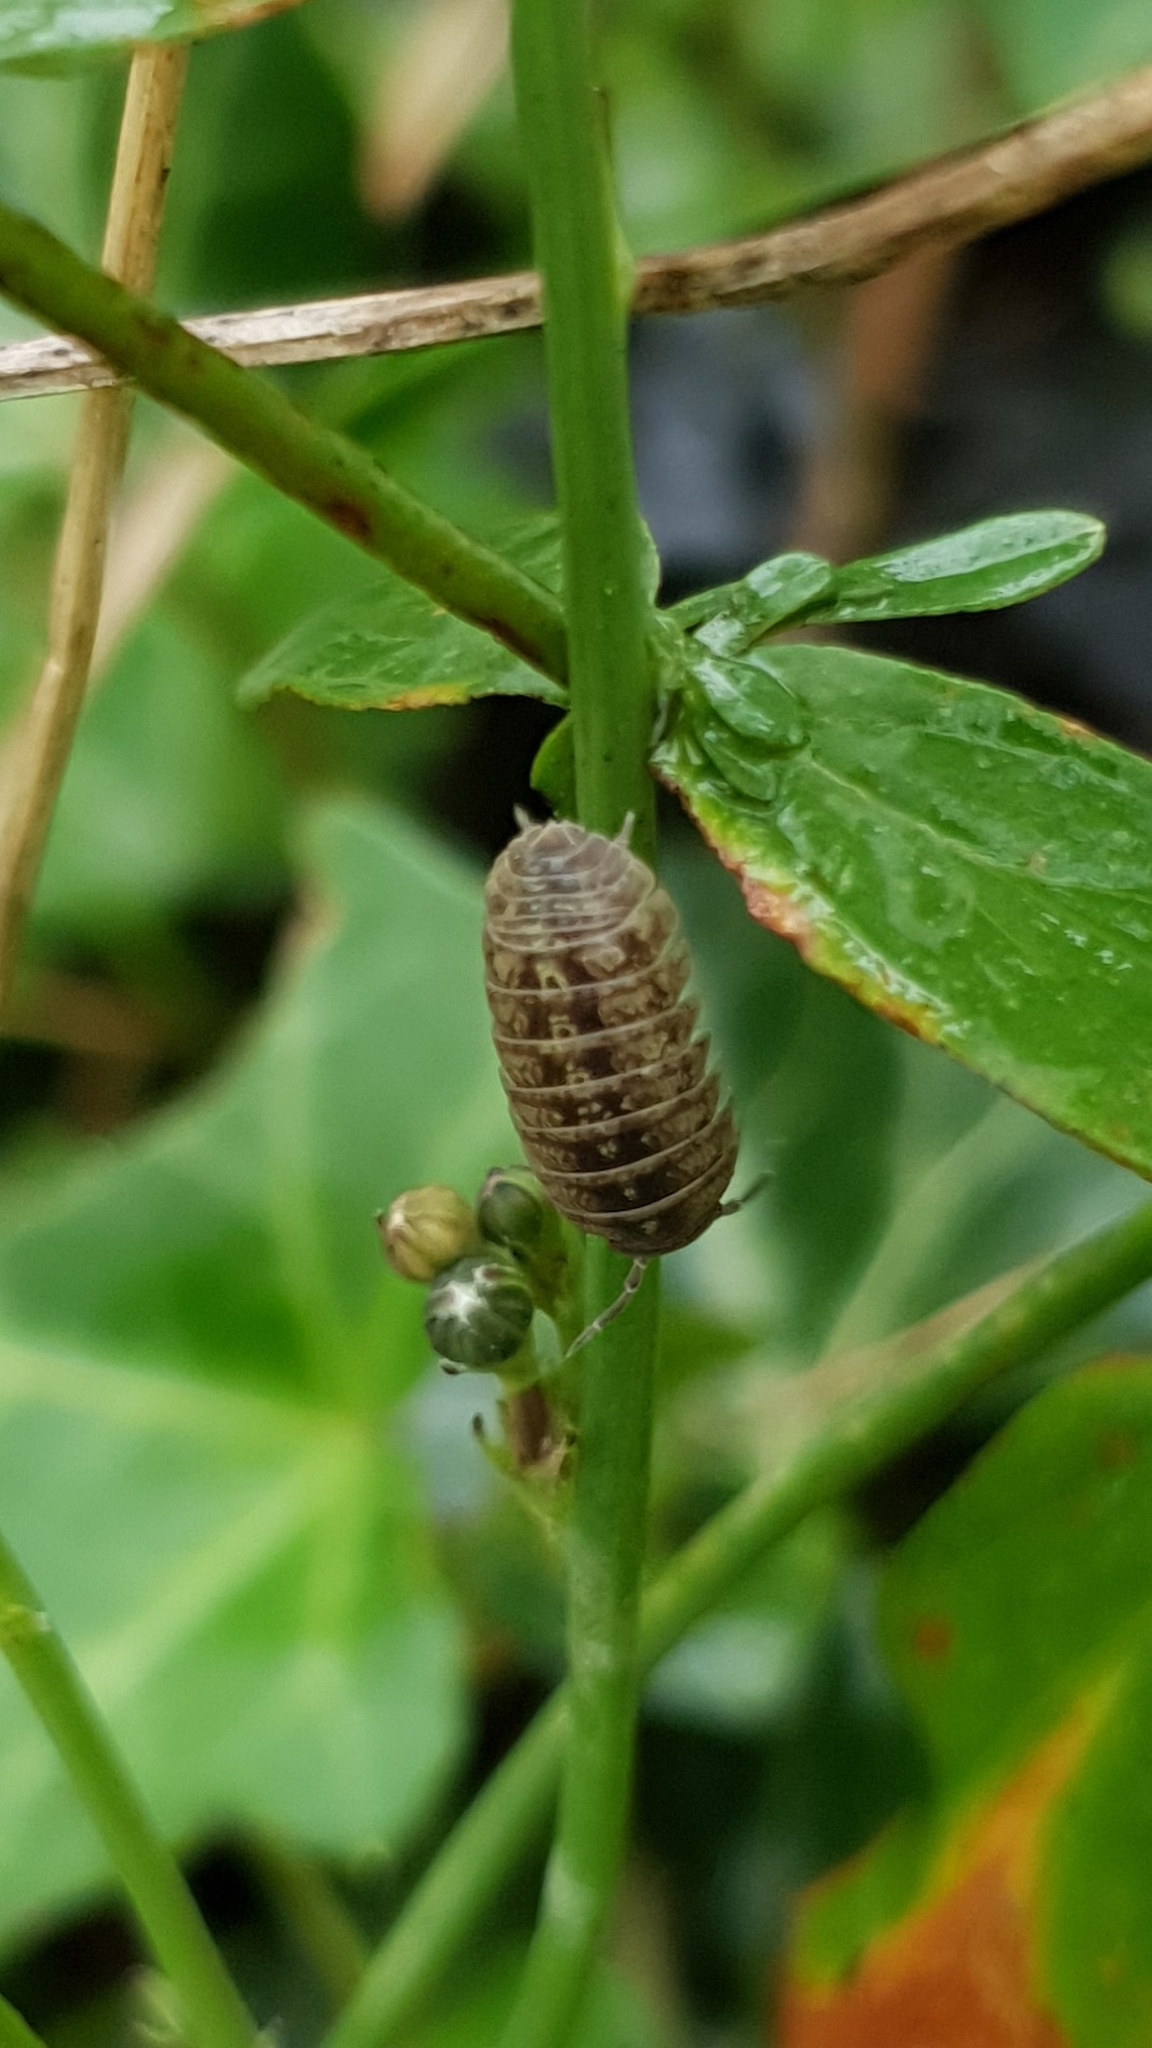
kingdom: Animalia
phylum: Arthropoda
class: Malacostraca
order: Isopoda
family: Armadillidiidae
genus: Armadillidium
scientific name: Armadillidium nasatum
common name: Isopod
